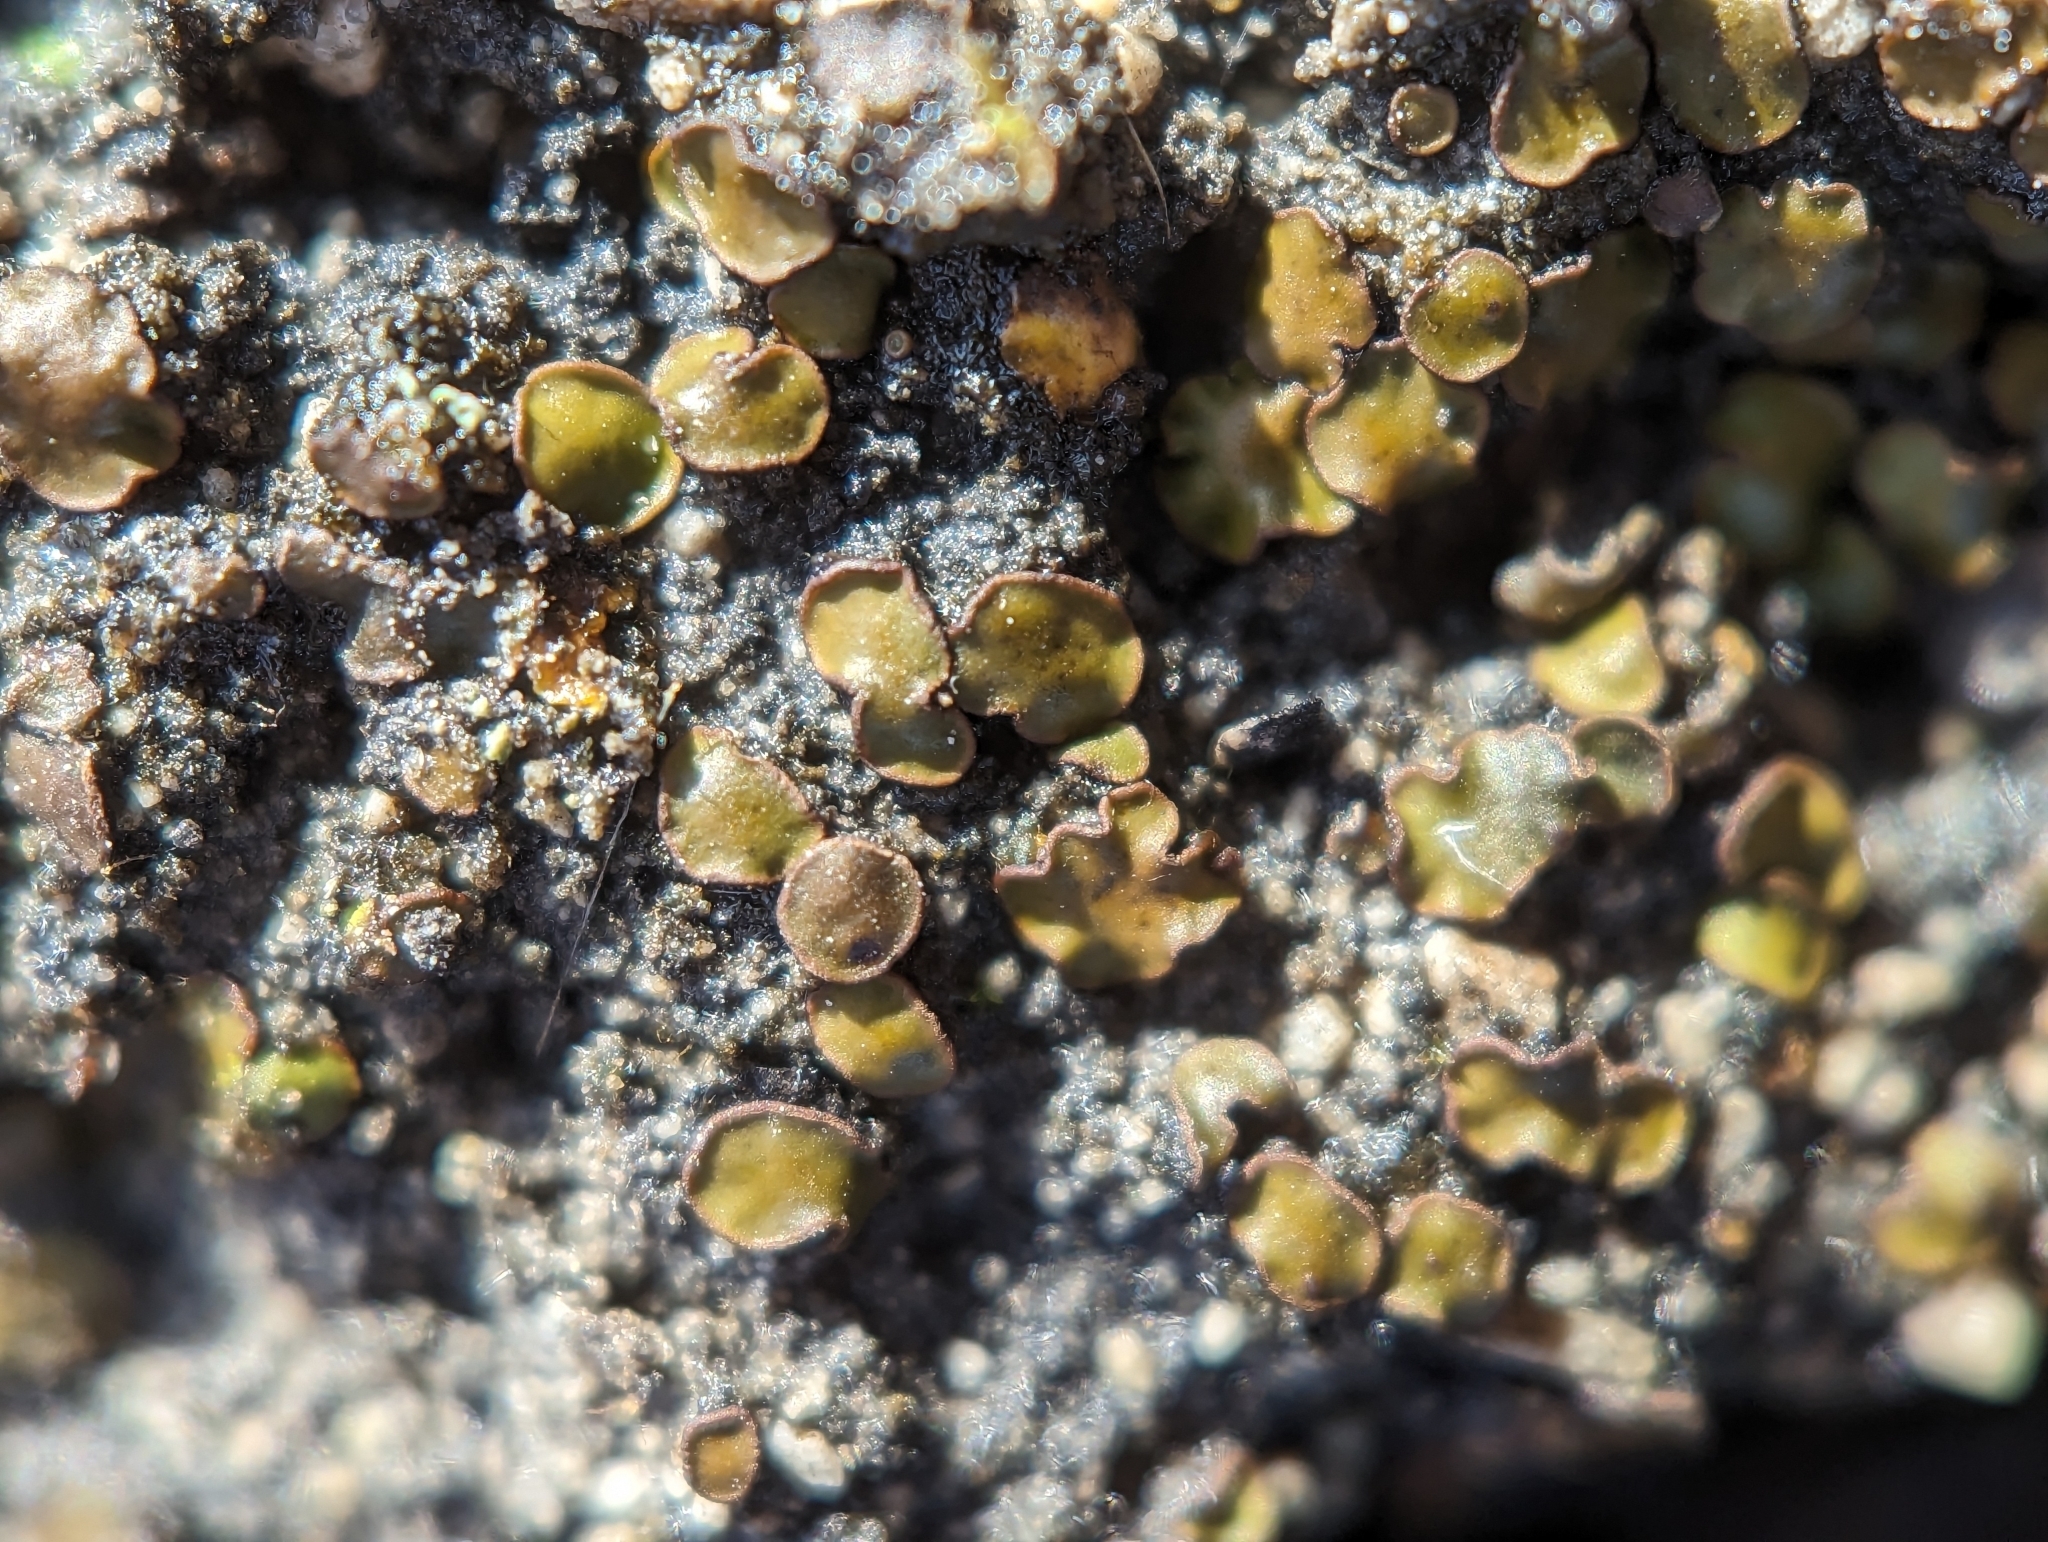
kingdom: Fungi
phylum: Ascomycota
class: Eurotiomycetes
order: Verrucariales
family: Verrucariaceae
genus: Catapyrenium
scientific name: Catapyrenium squamulosum
